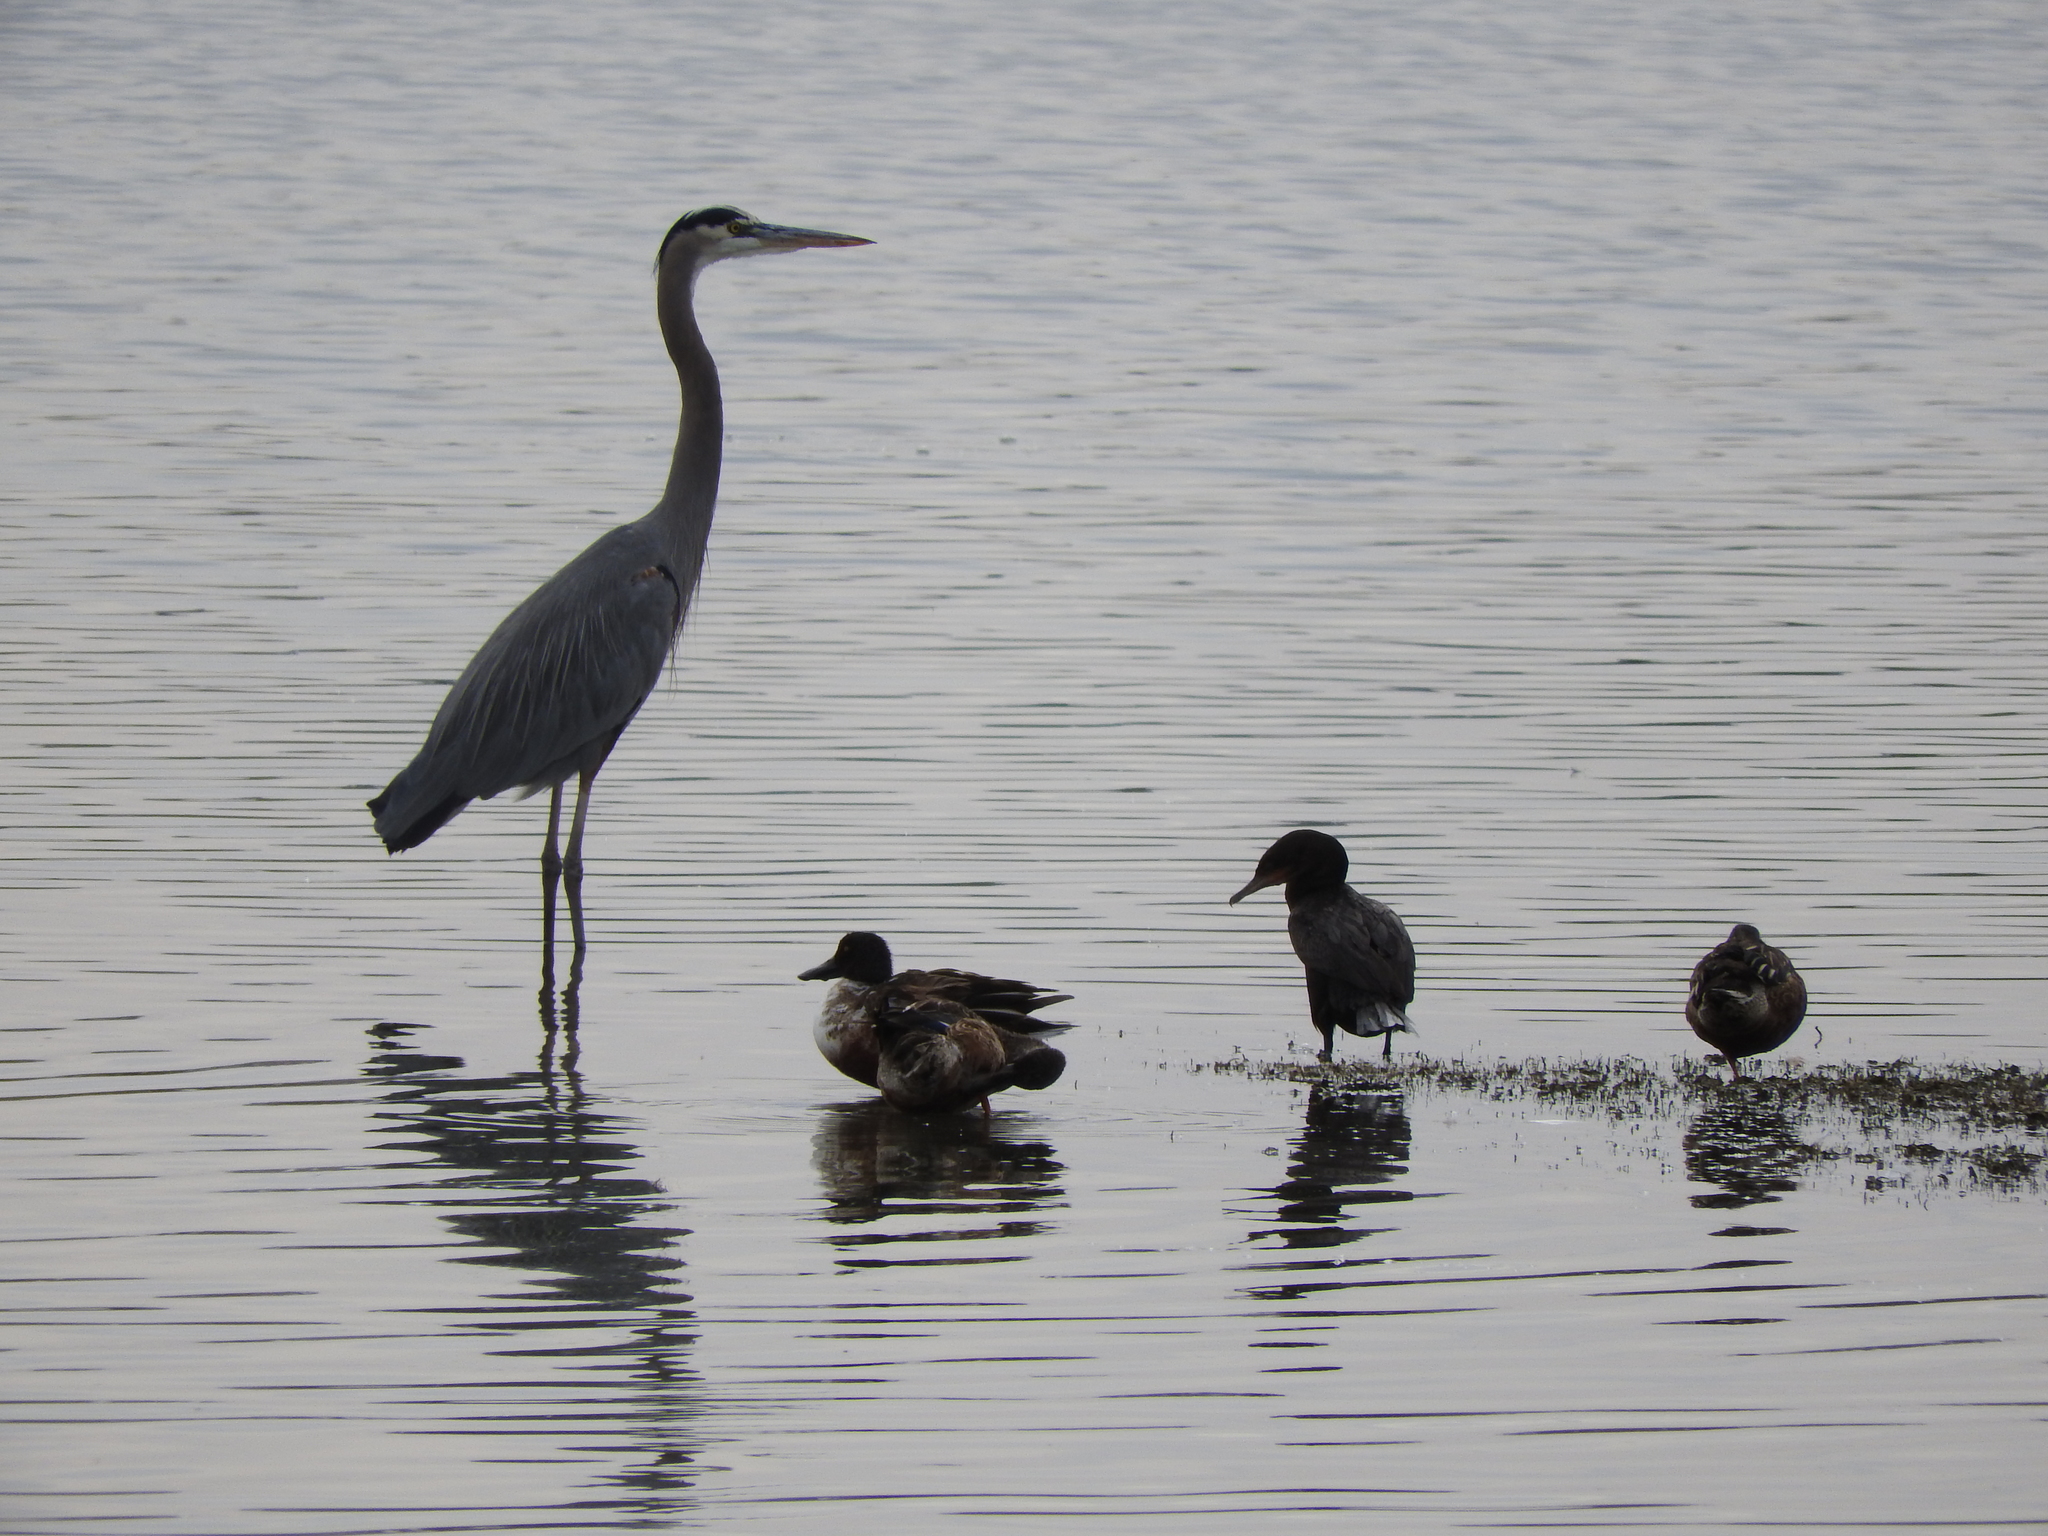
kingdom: Animalia
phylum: Chordata
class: Aves
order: Anseriformes
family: Anatidae
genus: Spatula
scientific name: Spatula clypeata
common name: Northern shoveler
